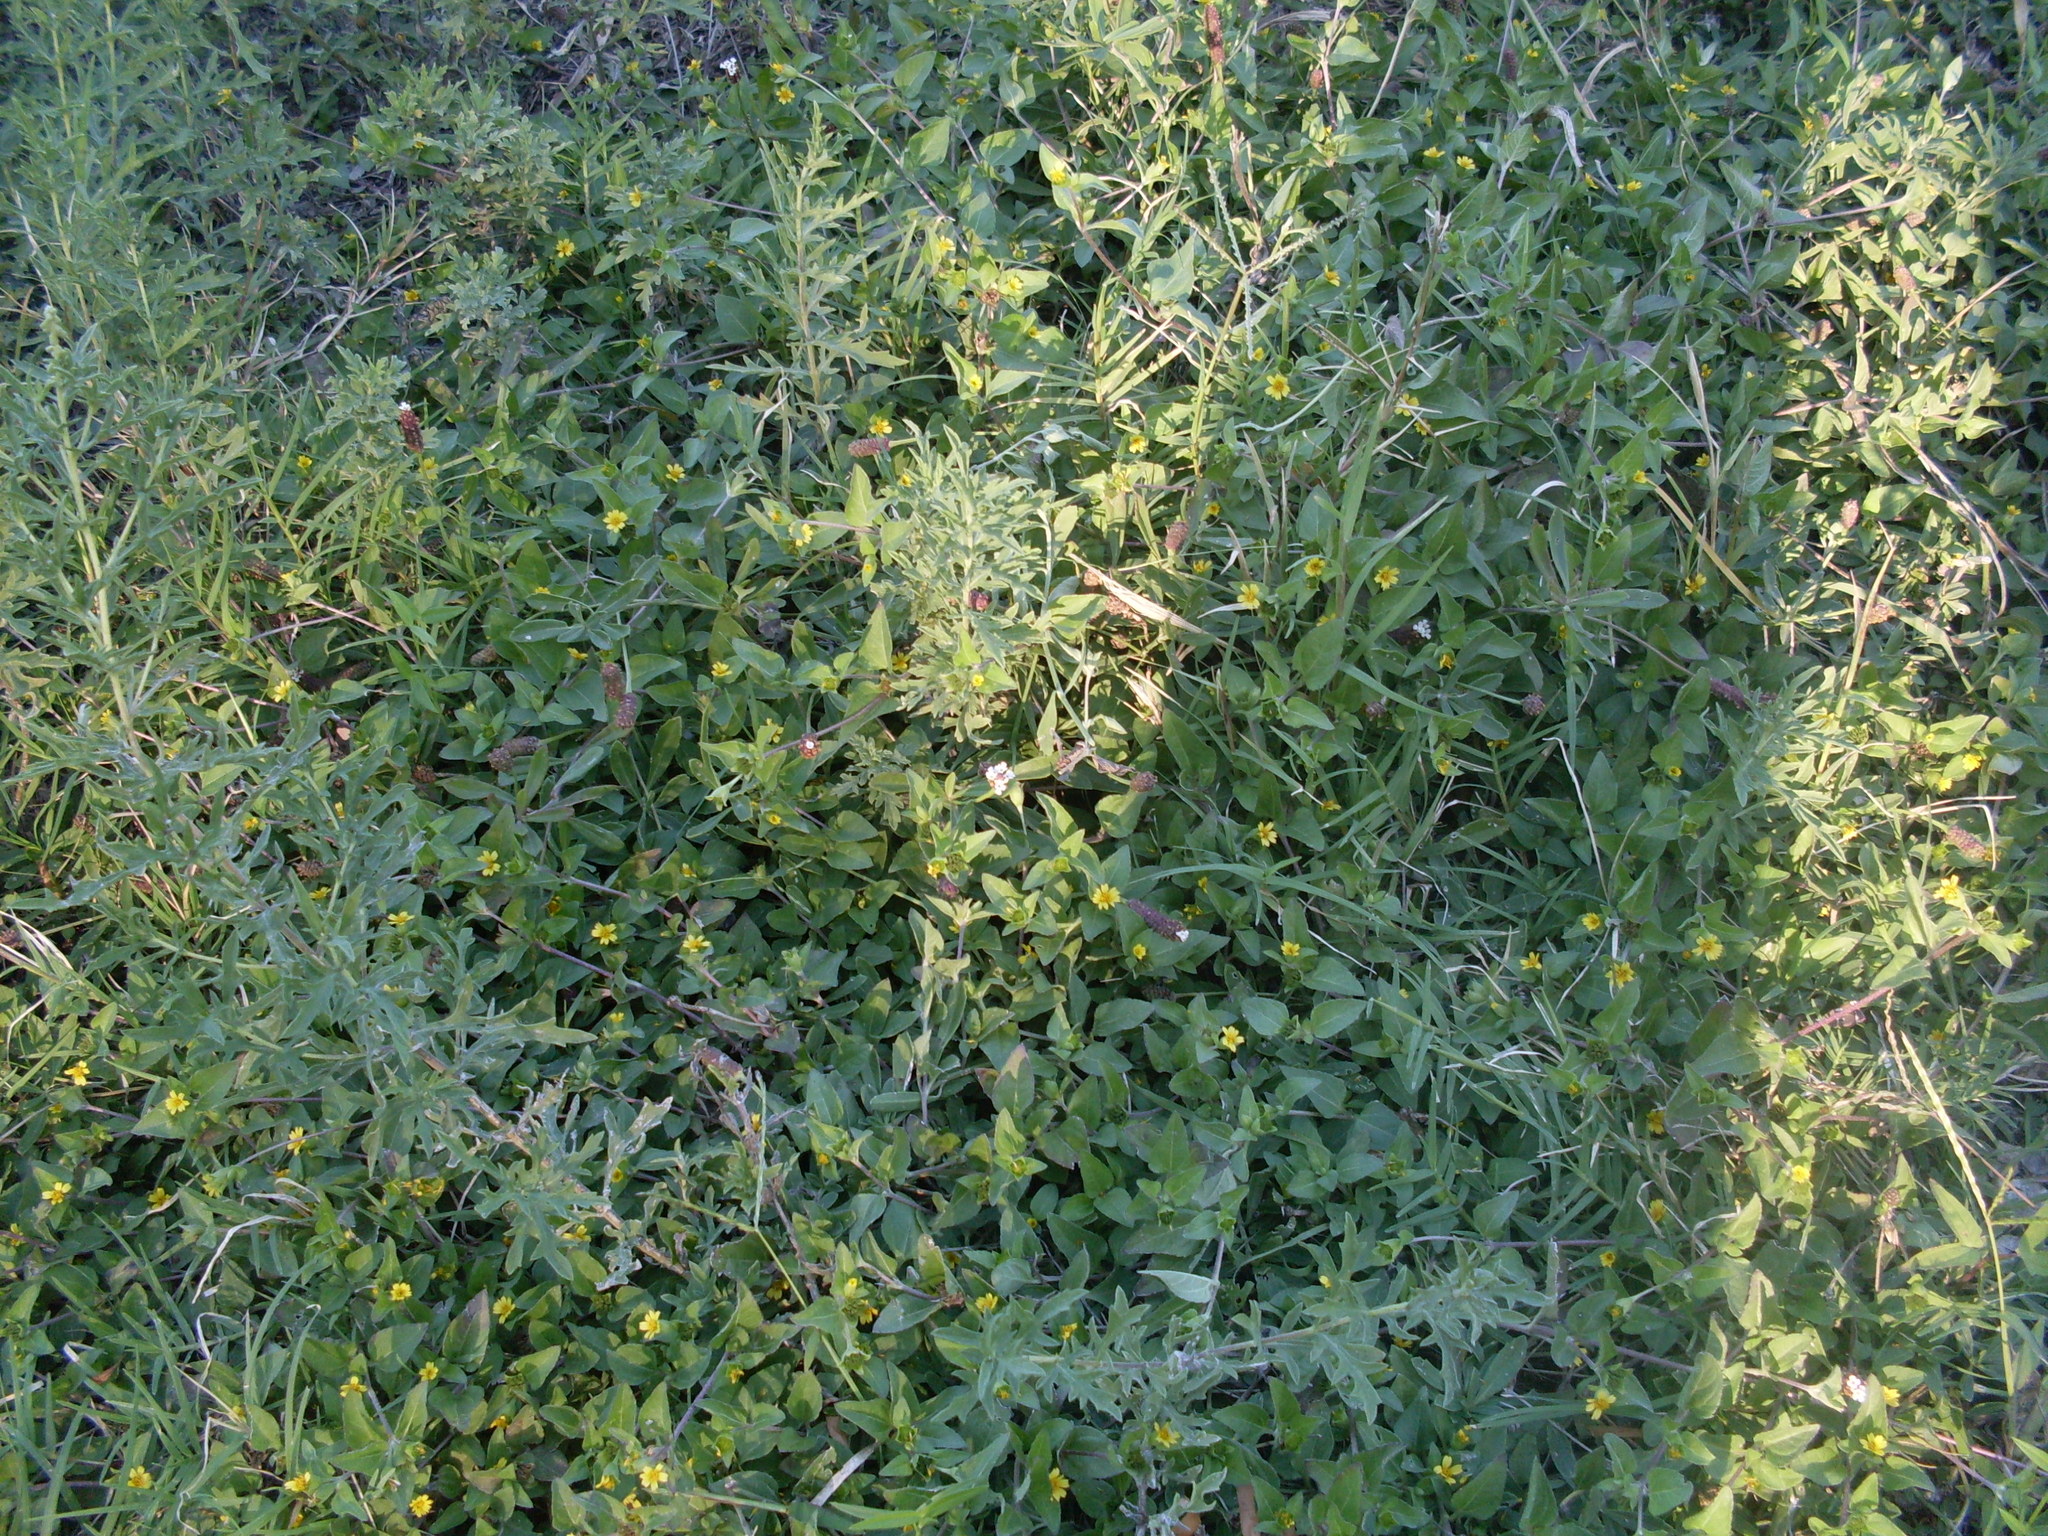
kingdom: Plantae
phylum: Tracheophyta
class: Magnoliopsida
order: Asterales
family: Asteraceae
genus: Calyptocarpus
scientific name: Calyptocarpus vialis
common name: Straggler daisy
